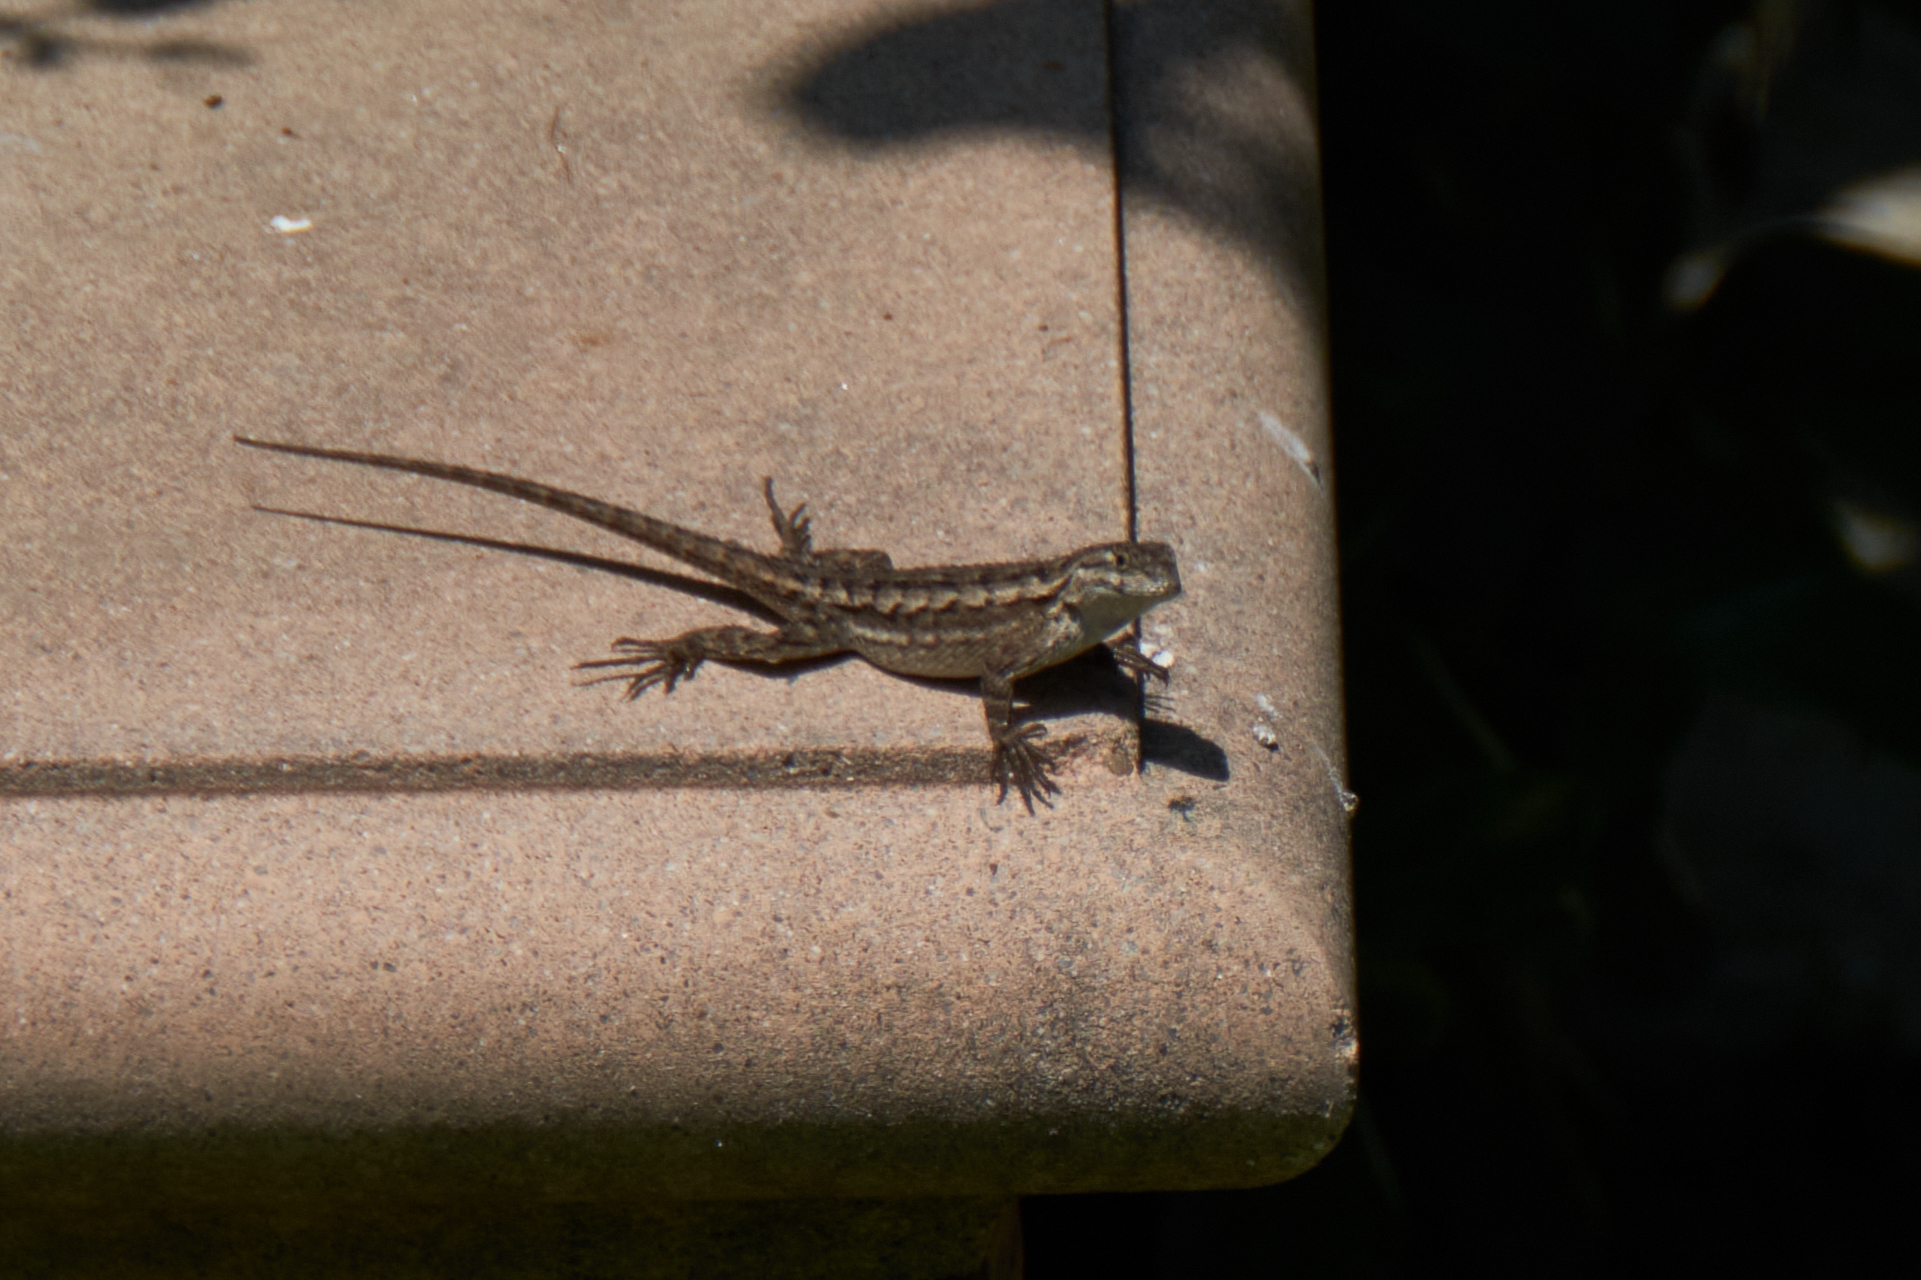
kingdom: Animalia
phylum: Chordata
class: Squamata
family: Phrynosomatidae
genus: Sceloporus
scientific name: Sceloporus occidentalis
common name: Western fence lizard
